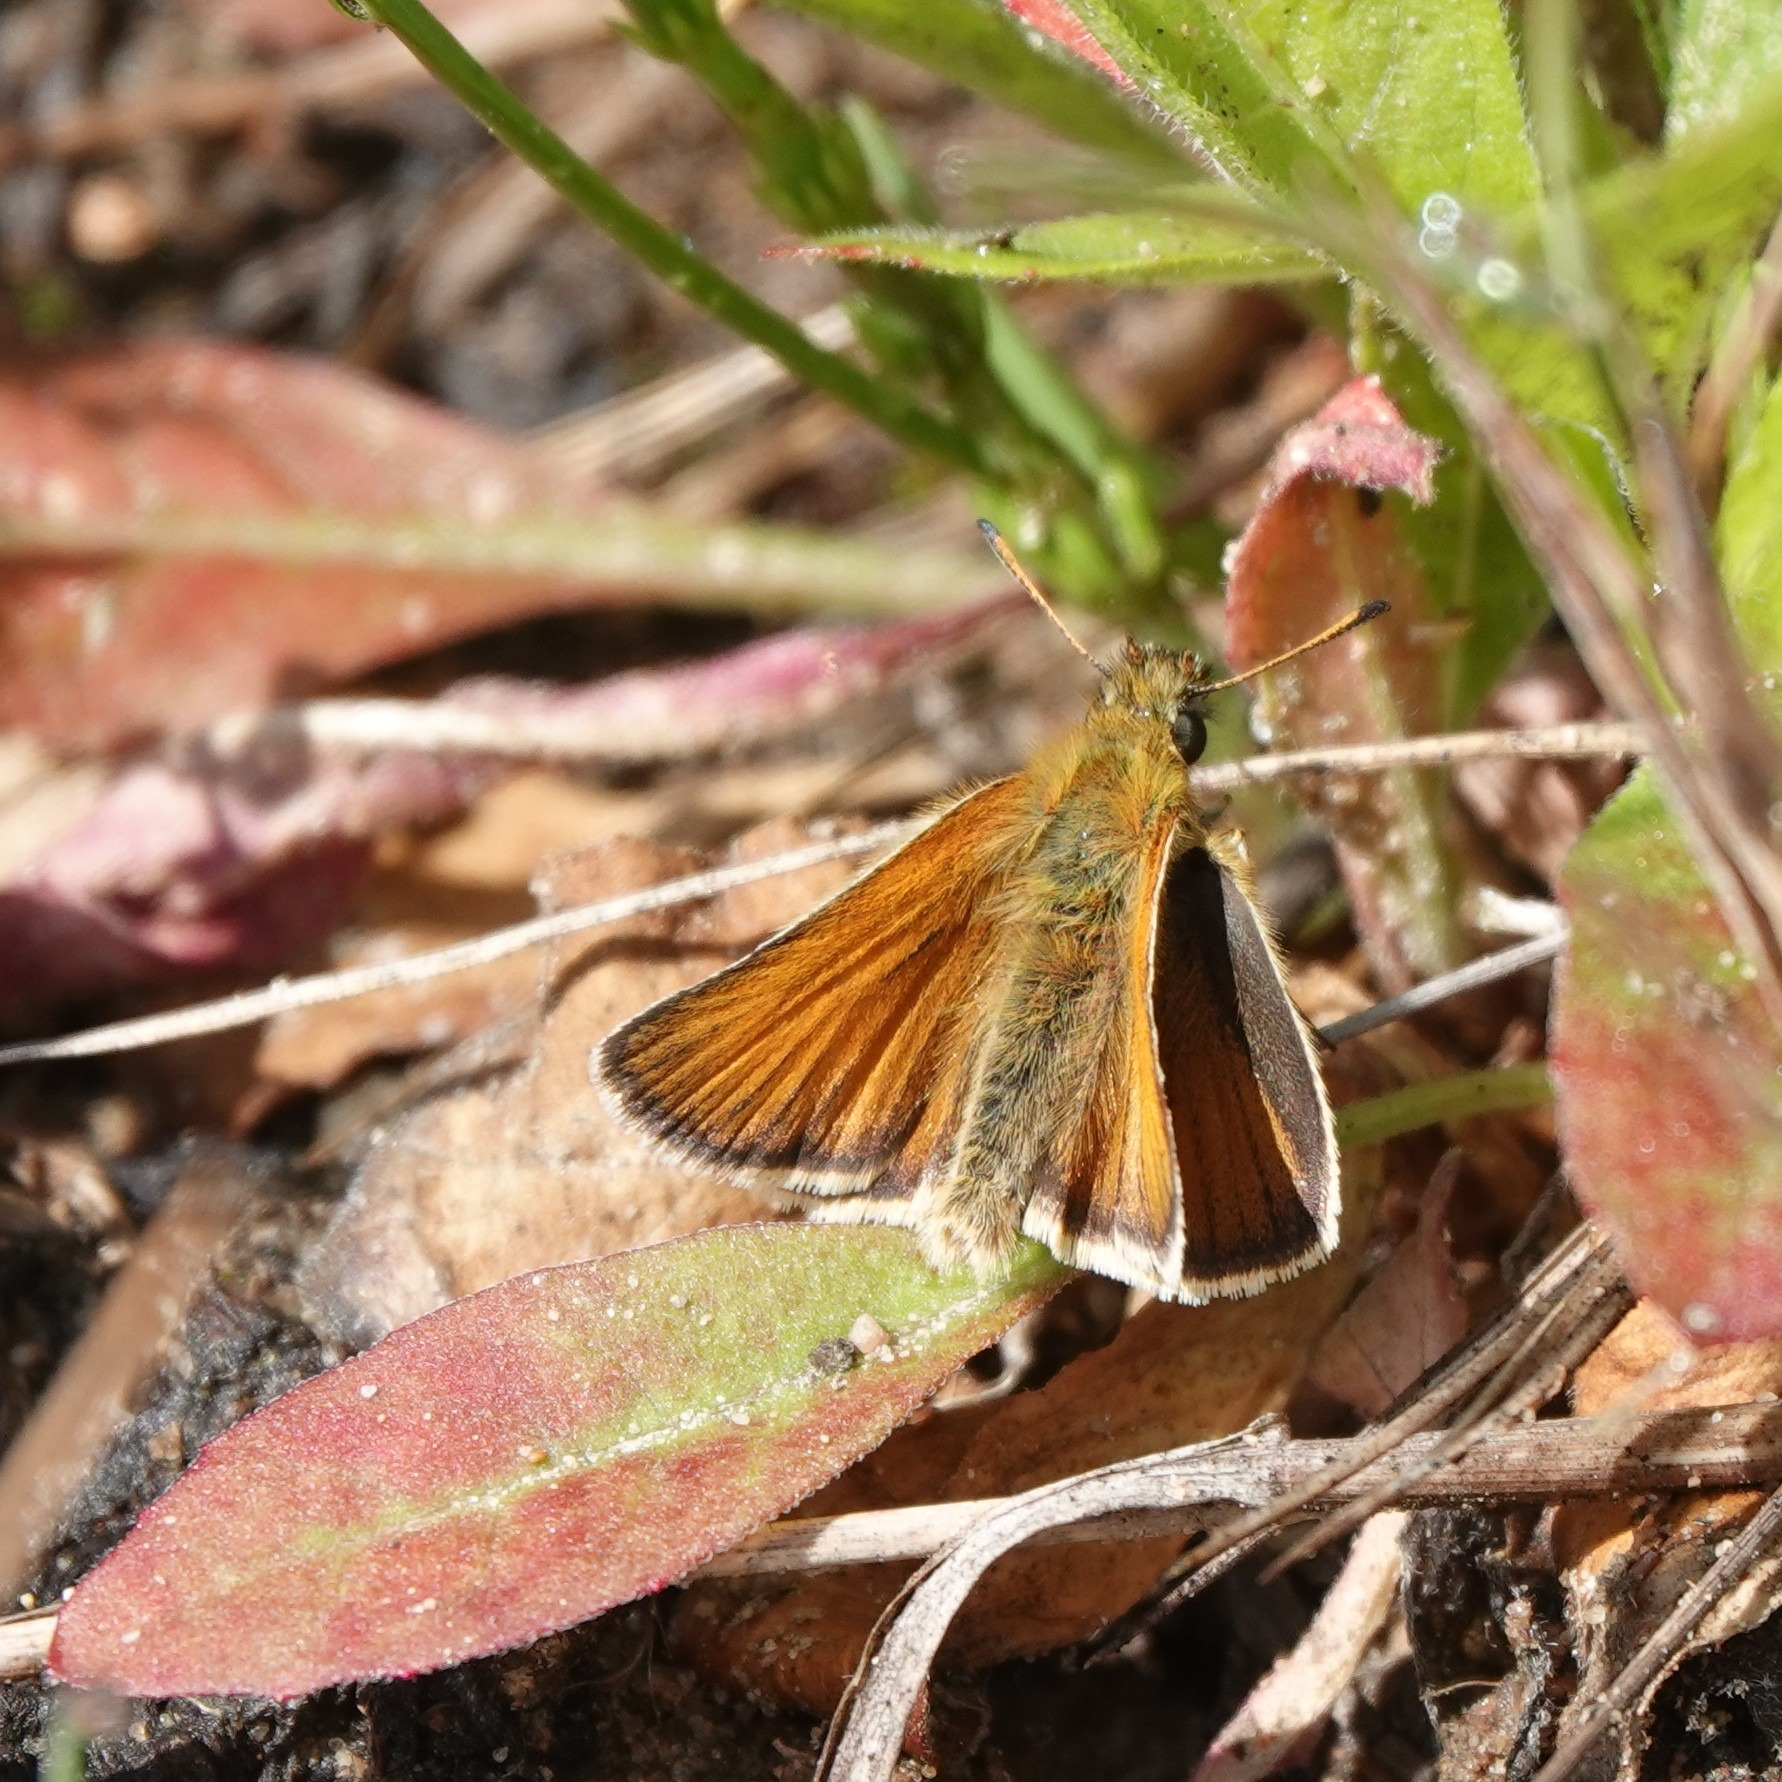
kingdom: Animalia
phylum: Arthropoda
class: Insecta
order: Lepidoptera
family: Hesperiidae
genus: Thymelicus
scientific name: Thymelicus lineola
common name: Essex skipper
